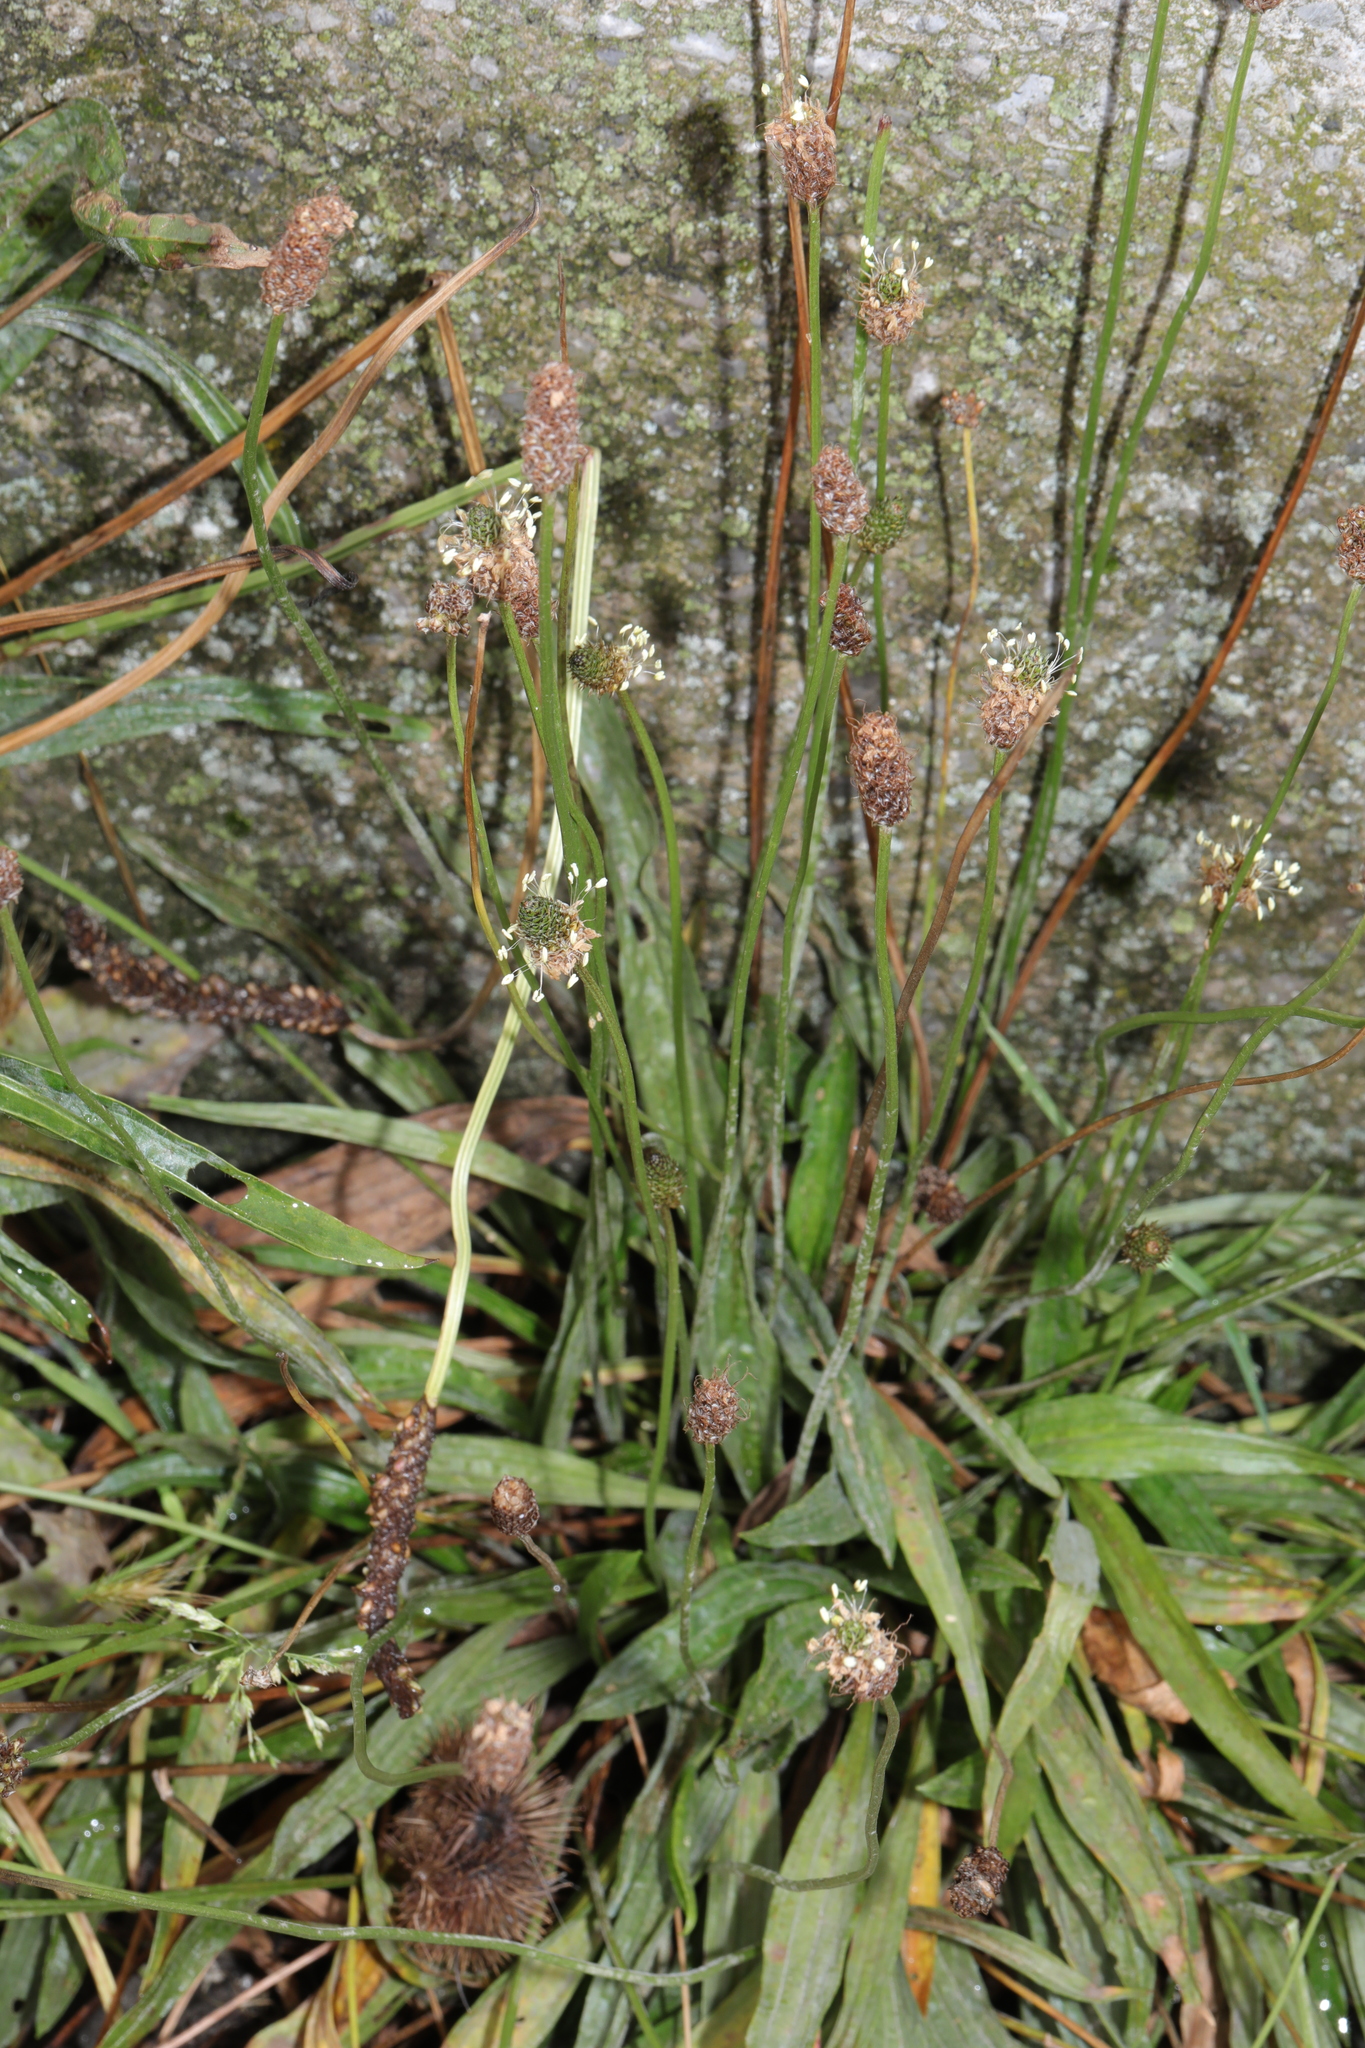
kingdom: Plantae
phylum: Tracheophyta
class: Magnoliopsida
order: Lamiales
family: Plantaginaceae
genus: Plantago
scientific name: Plantago lanceolata
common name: Ribwort plantain
